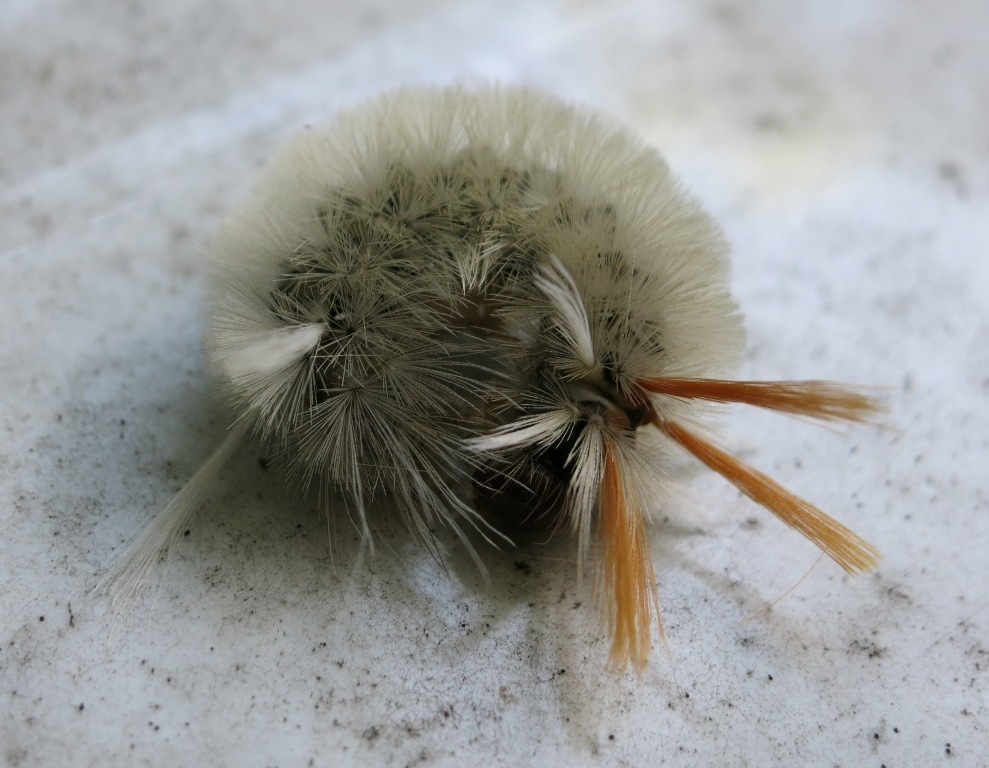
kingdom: Animalia
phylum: Arthropoda
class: Insecta
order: Lepidoptera
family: Erebidae
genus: Halysidota
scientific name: Halysidota harrisii
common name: Sycamore tussock moth
